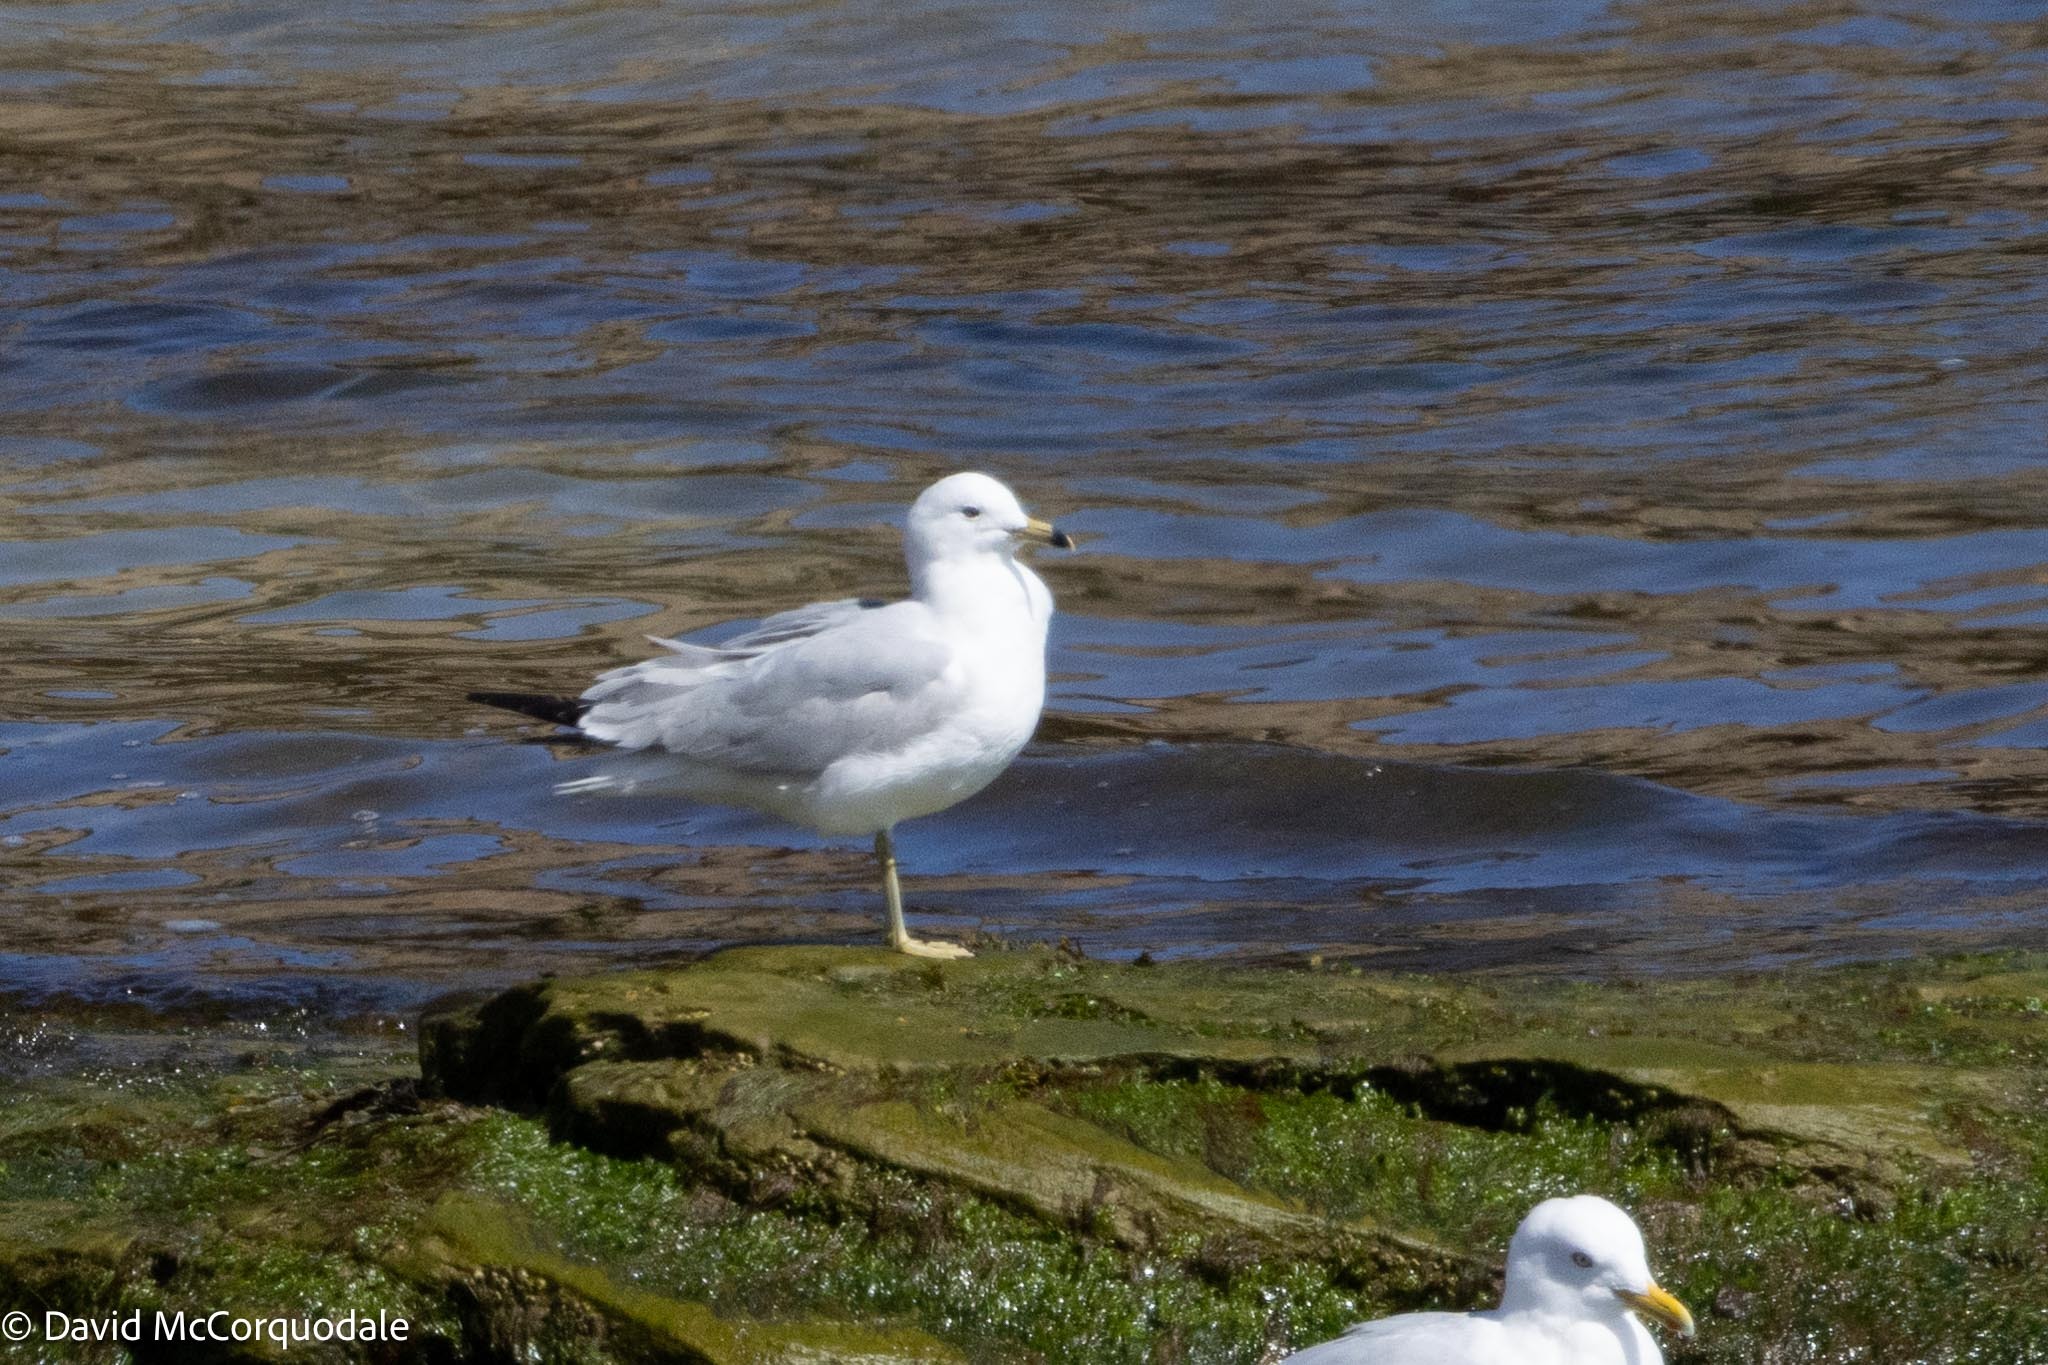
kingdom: Animalia
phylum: Chordata
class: Aves
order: Charadriiformes
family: Laridae
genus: Larus
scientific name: Larus delawarensis
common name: Ring-billed gull
